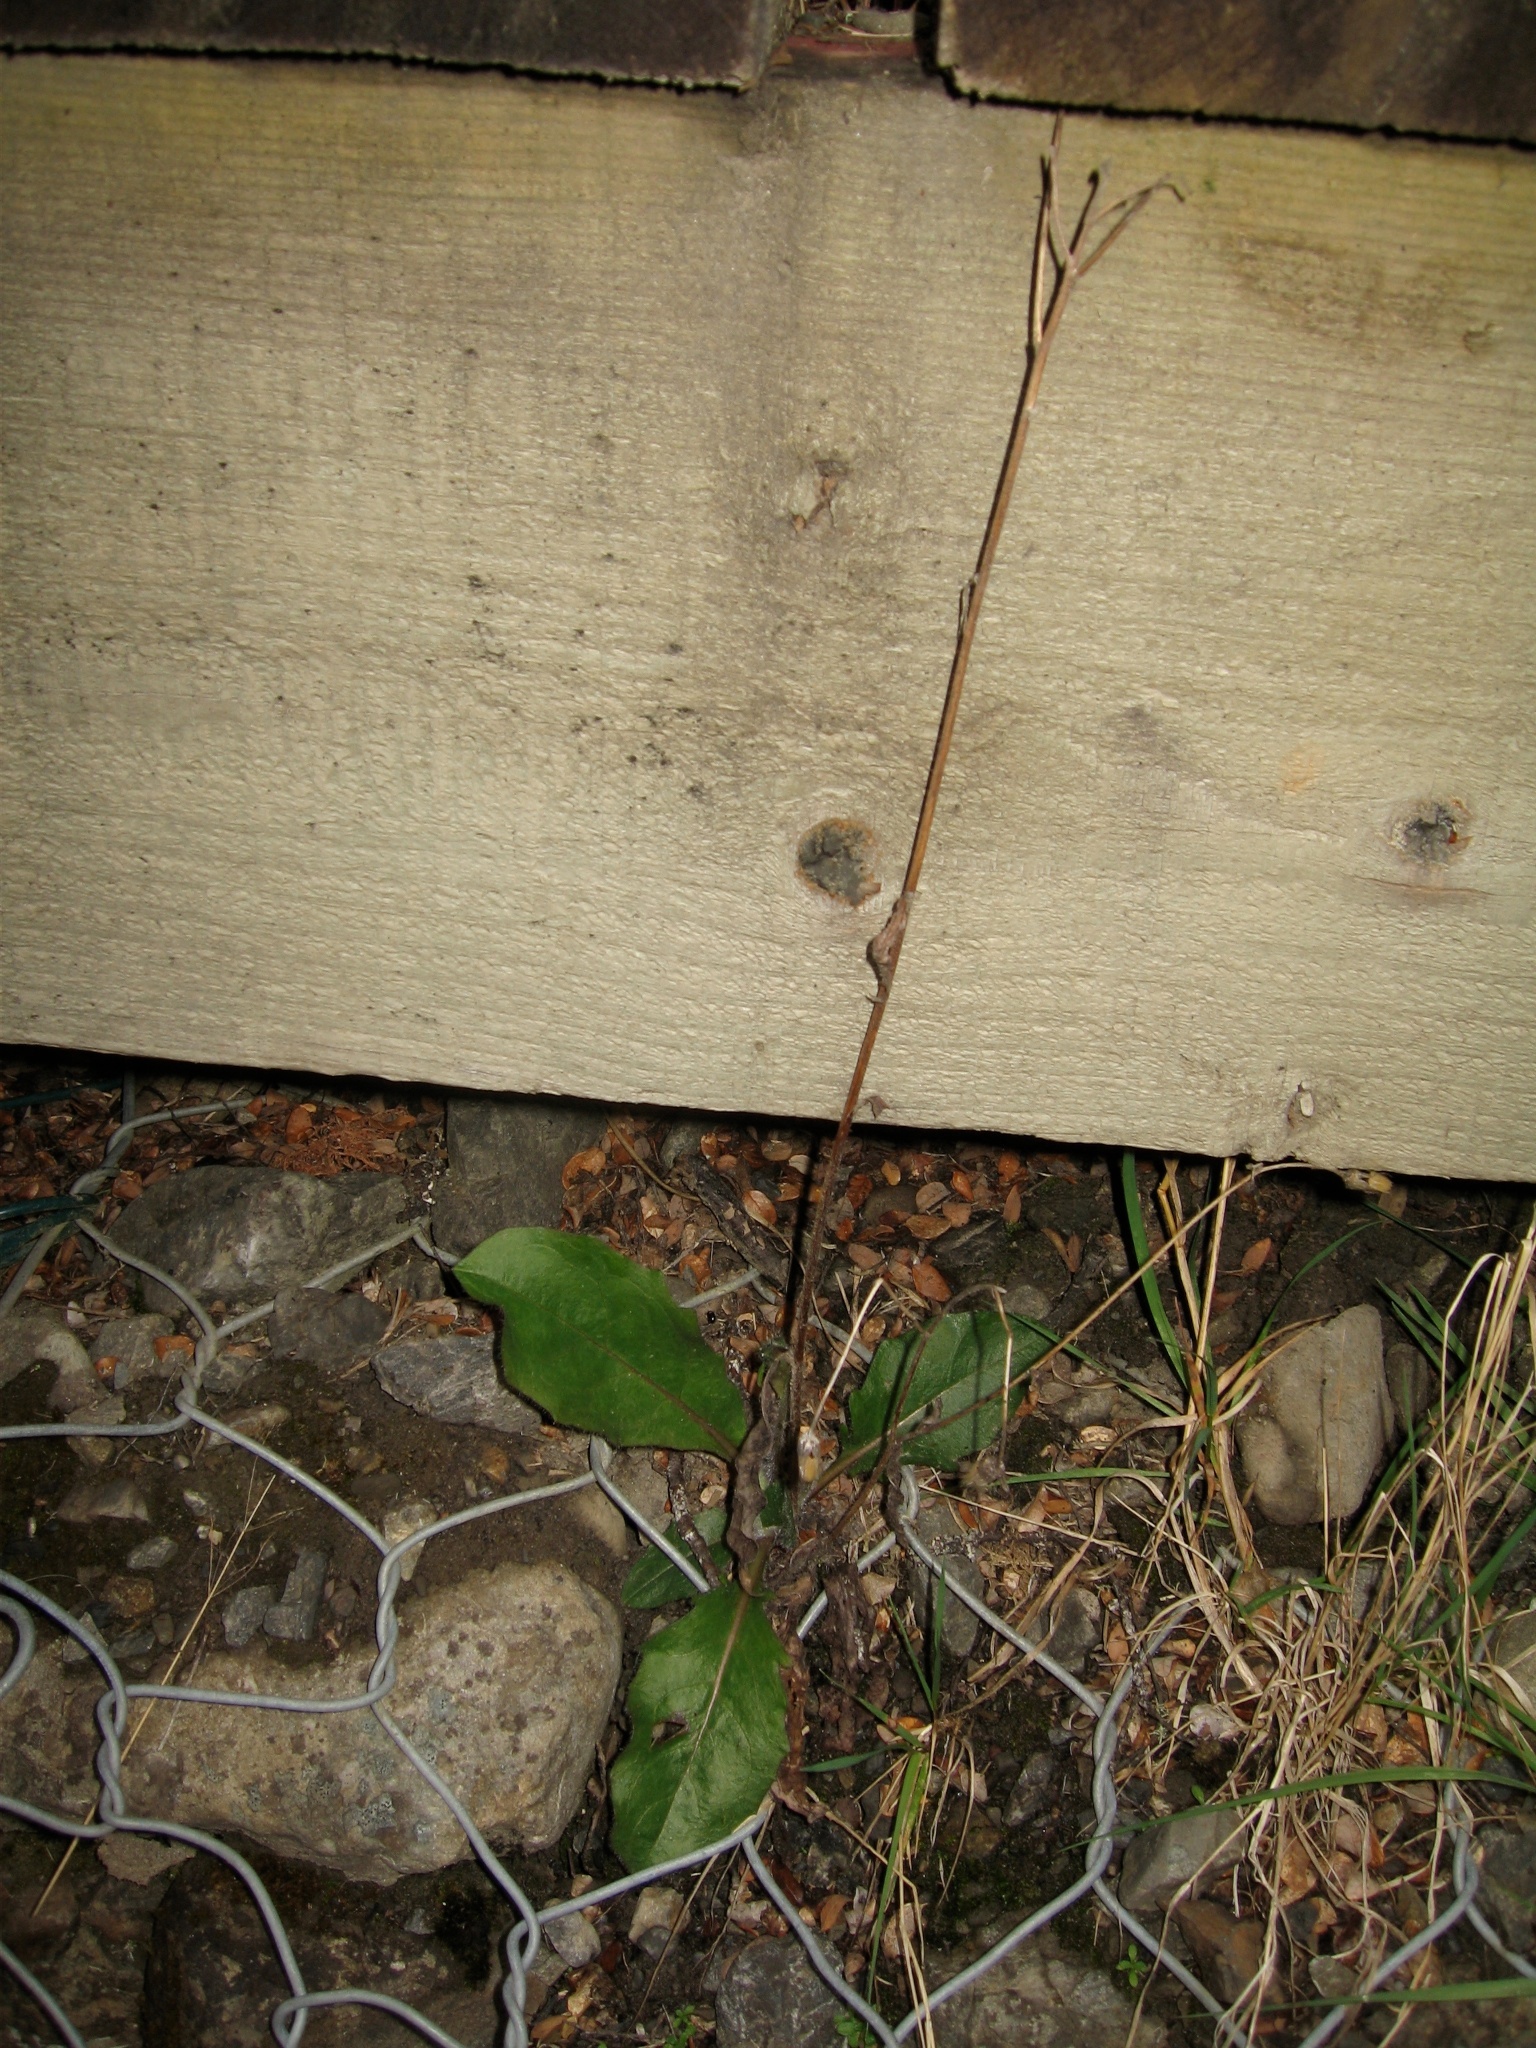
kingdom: Plantae
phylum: Tracheophyta
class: Magnoliopsida
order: Asterales
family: Asteraceae
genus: Hieracium
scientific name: Hieracium lepidulum
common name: Irregular-toothed hawkweed
